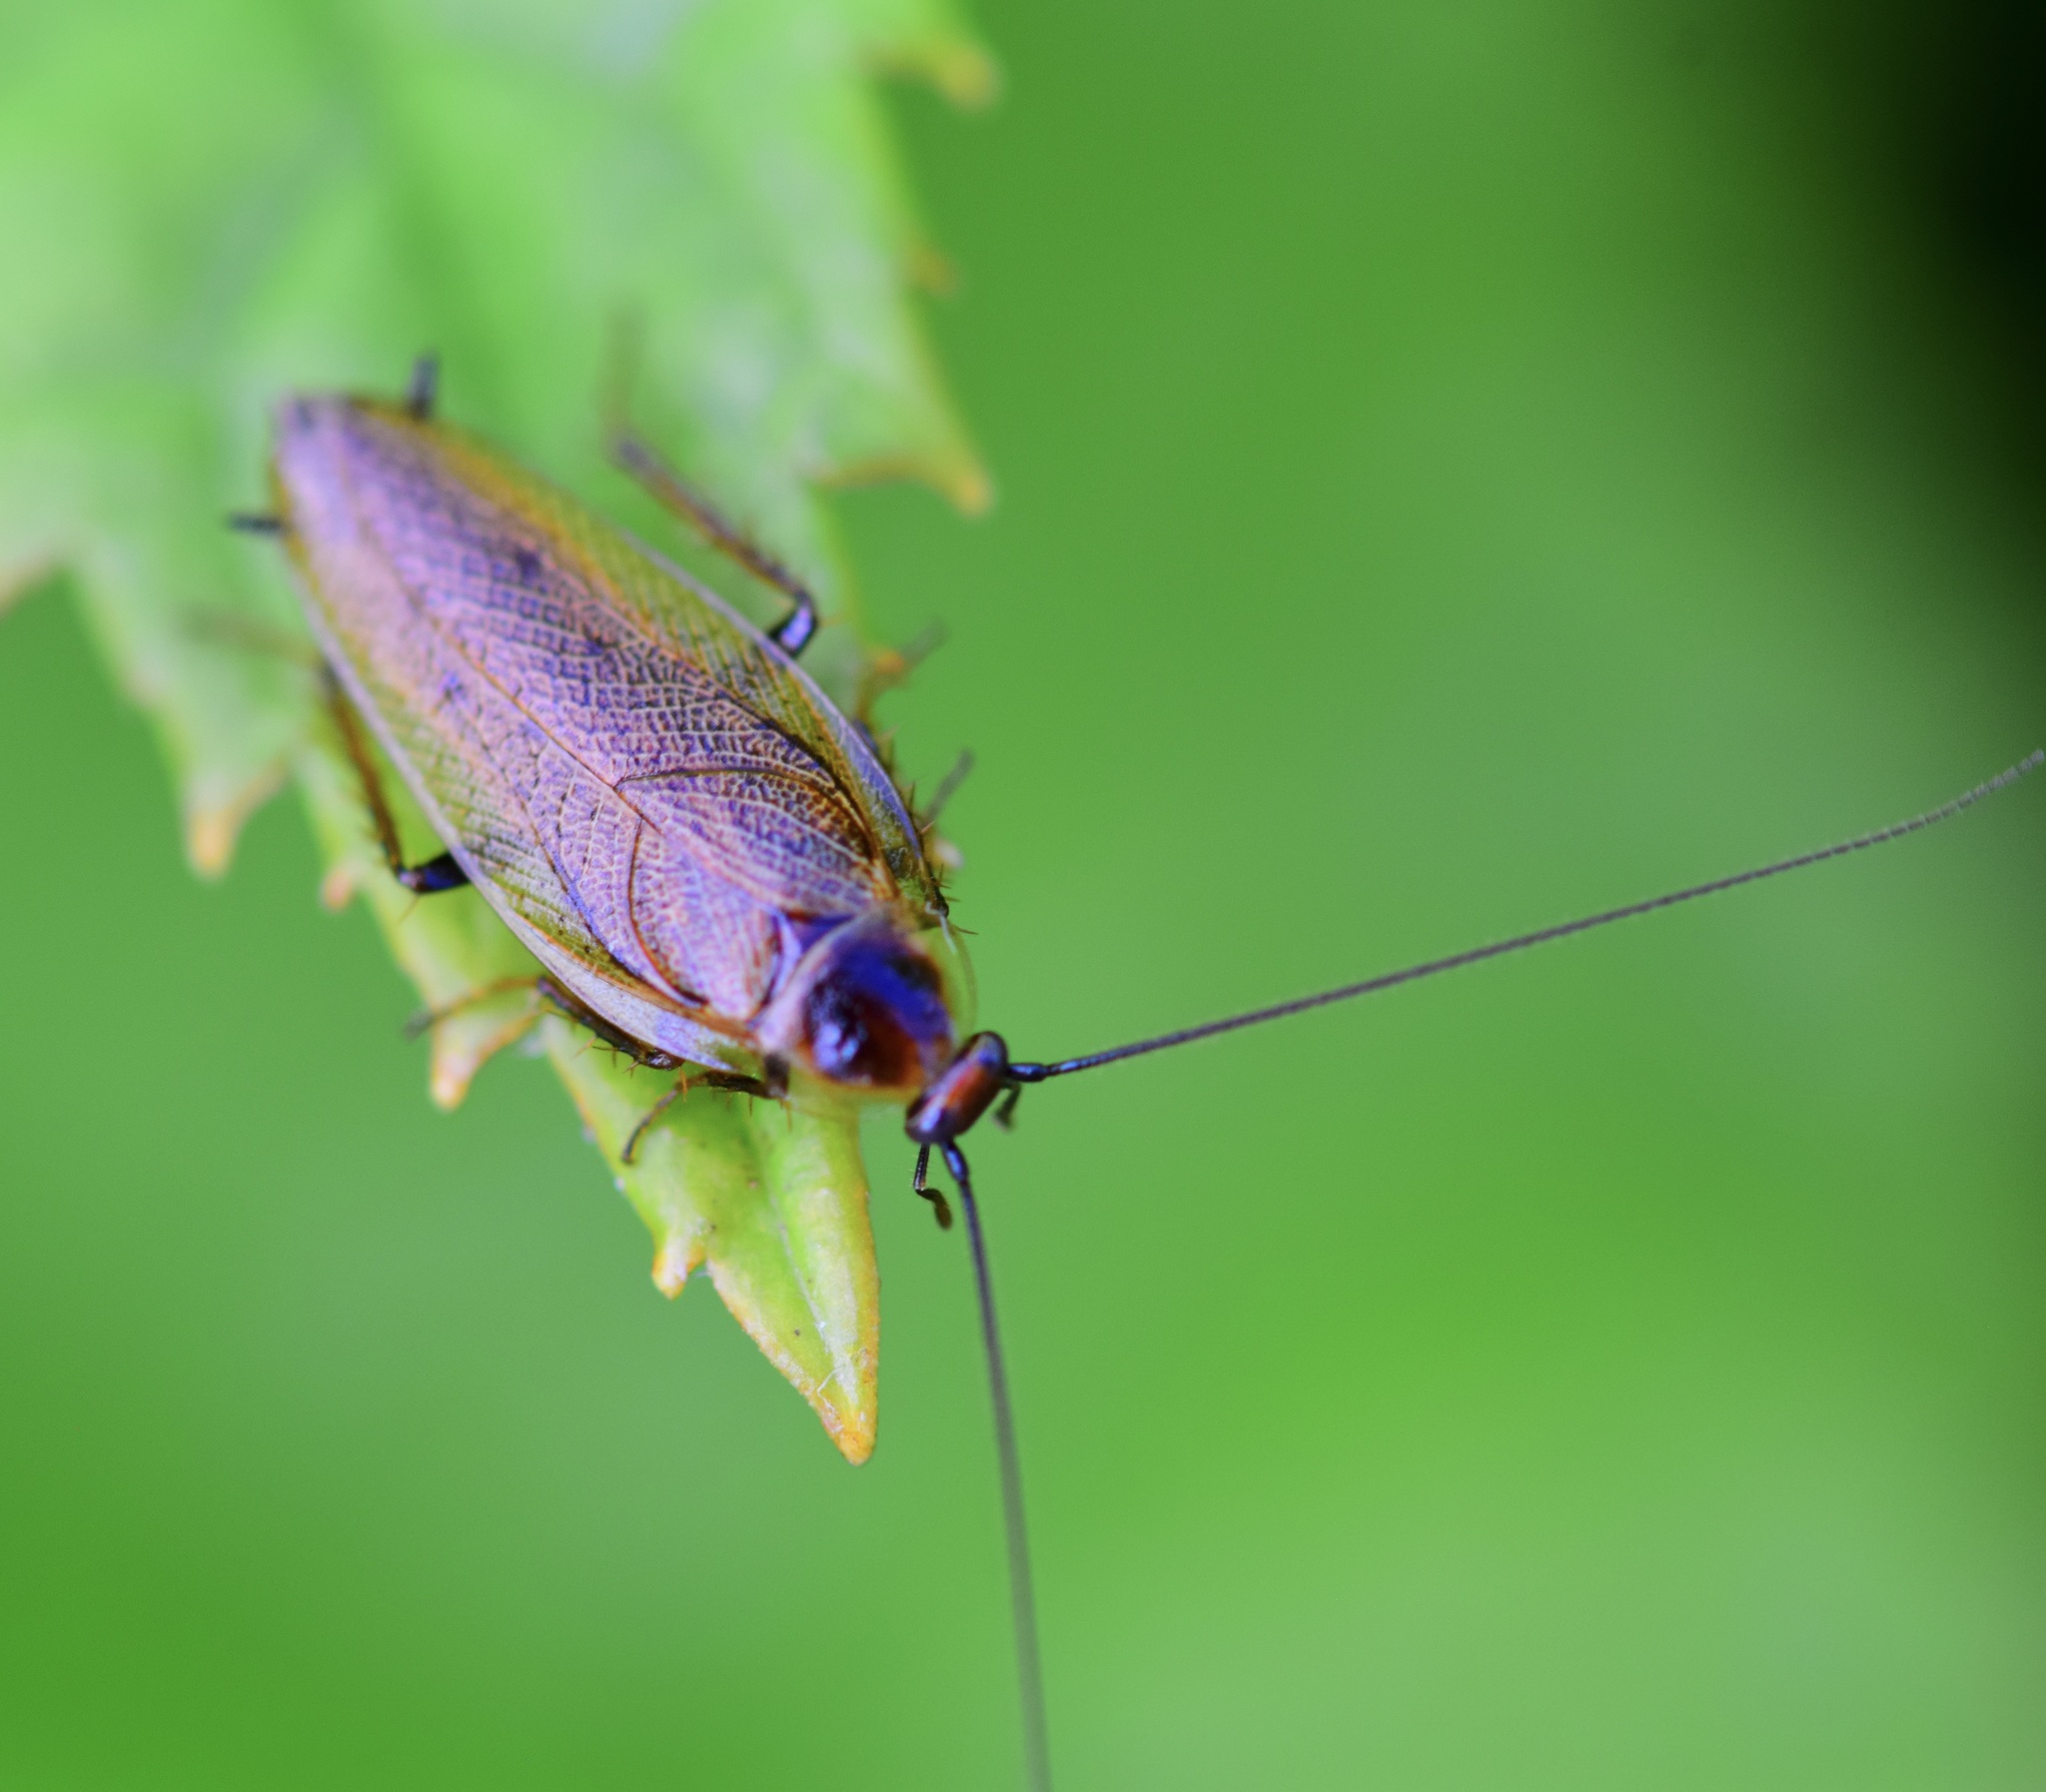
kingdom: Animalia
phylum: Arthropoda
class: Insecta
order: Blattodea
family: Ectobiidae
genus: Ectobius
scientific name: Ectobius lapponicus
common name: Dusky cockroach
